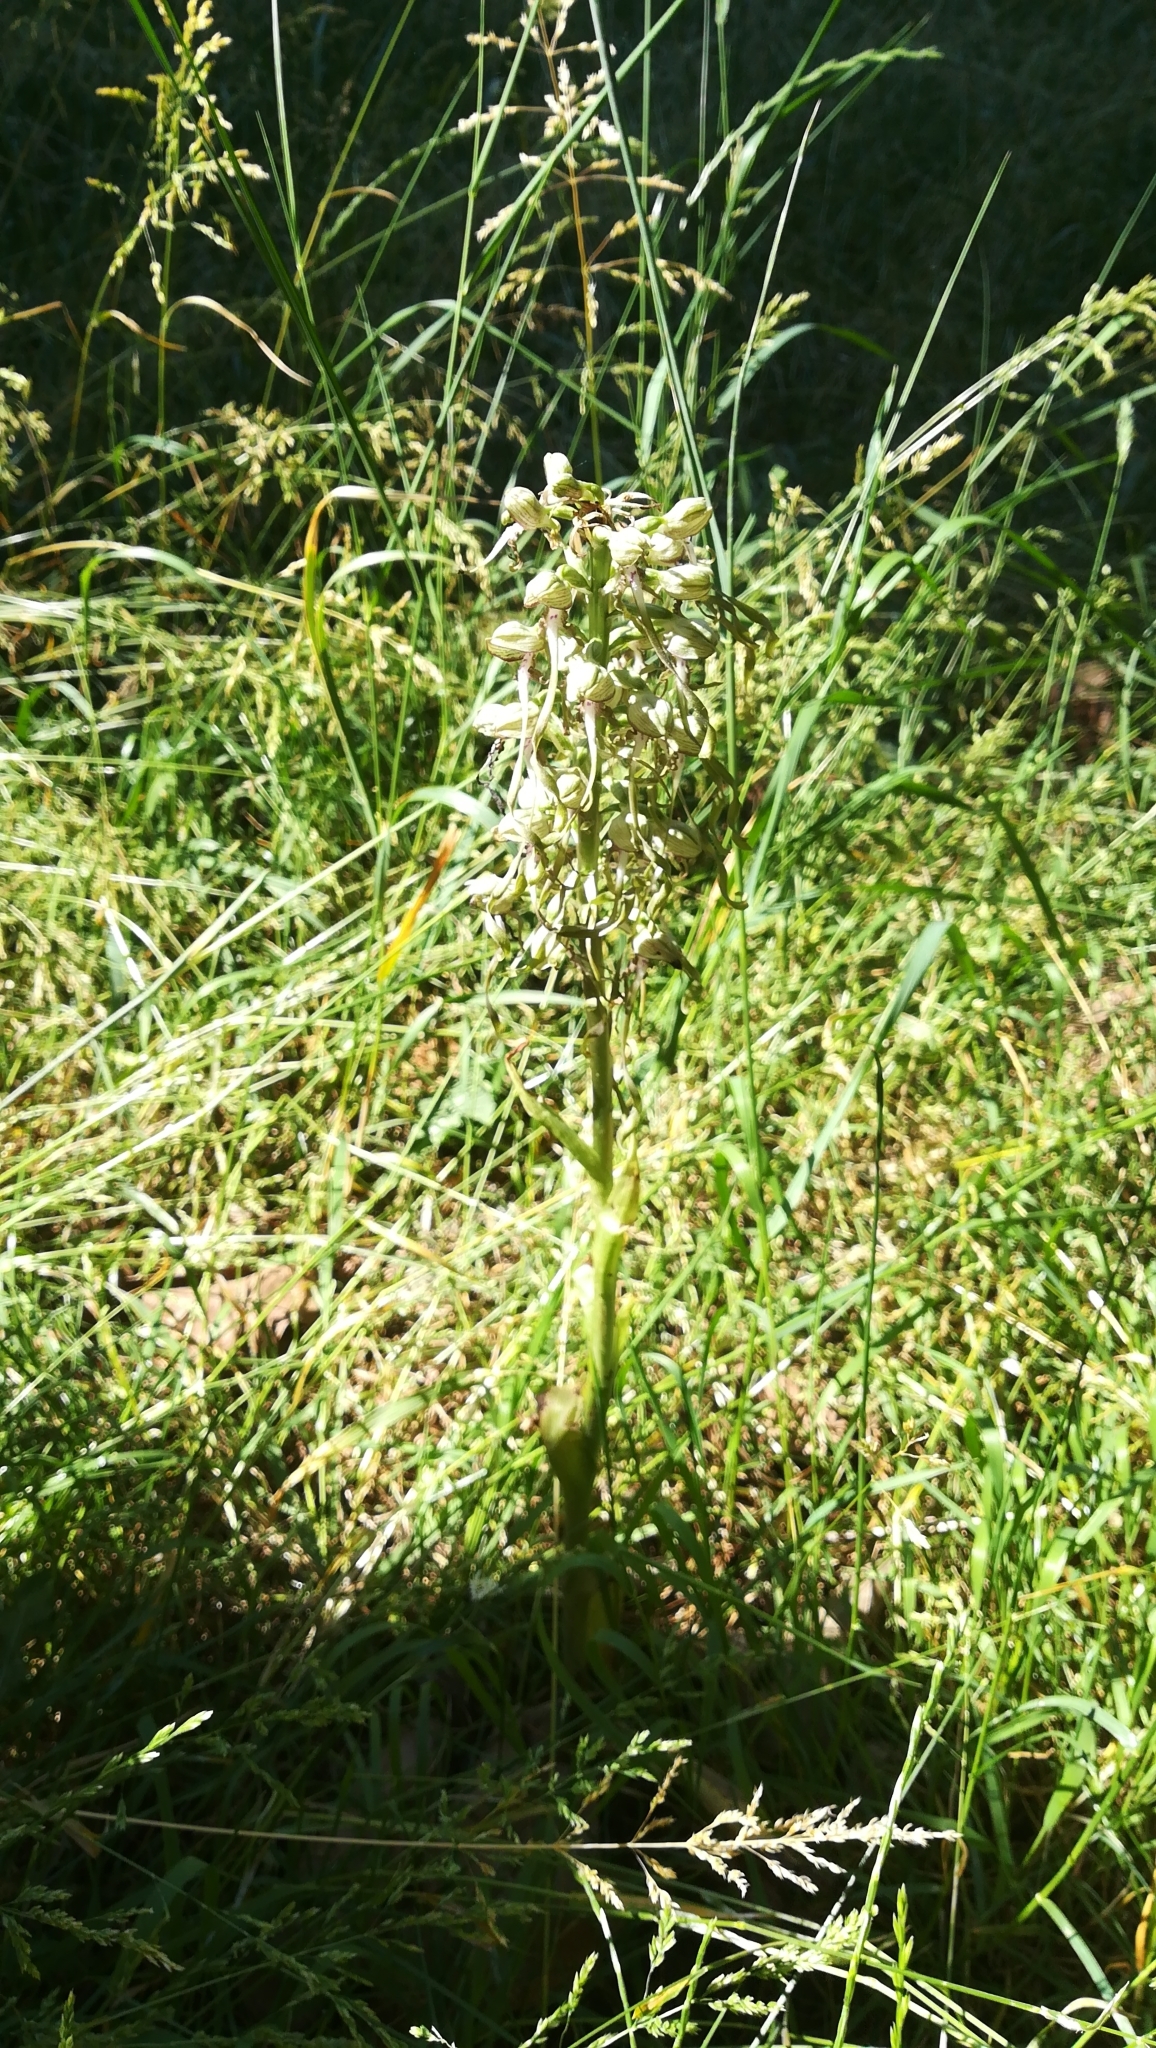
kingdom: Plantae
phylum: Tracheophyta
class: Liliopsida
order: Asparagales
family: Orchidaceae
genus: Himantoglossum
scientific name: Himantoglossum hircinum
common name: Lizard orchid
